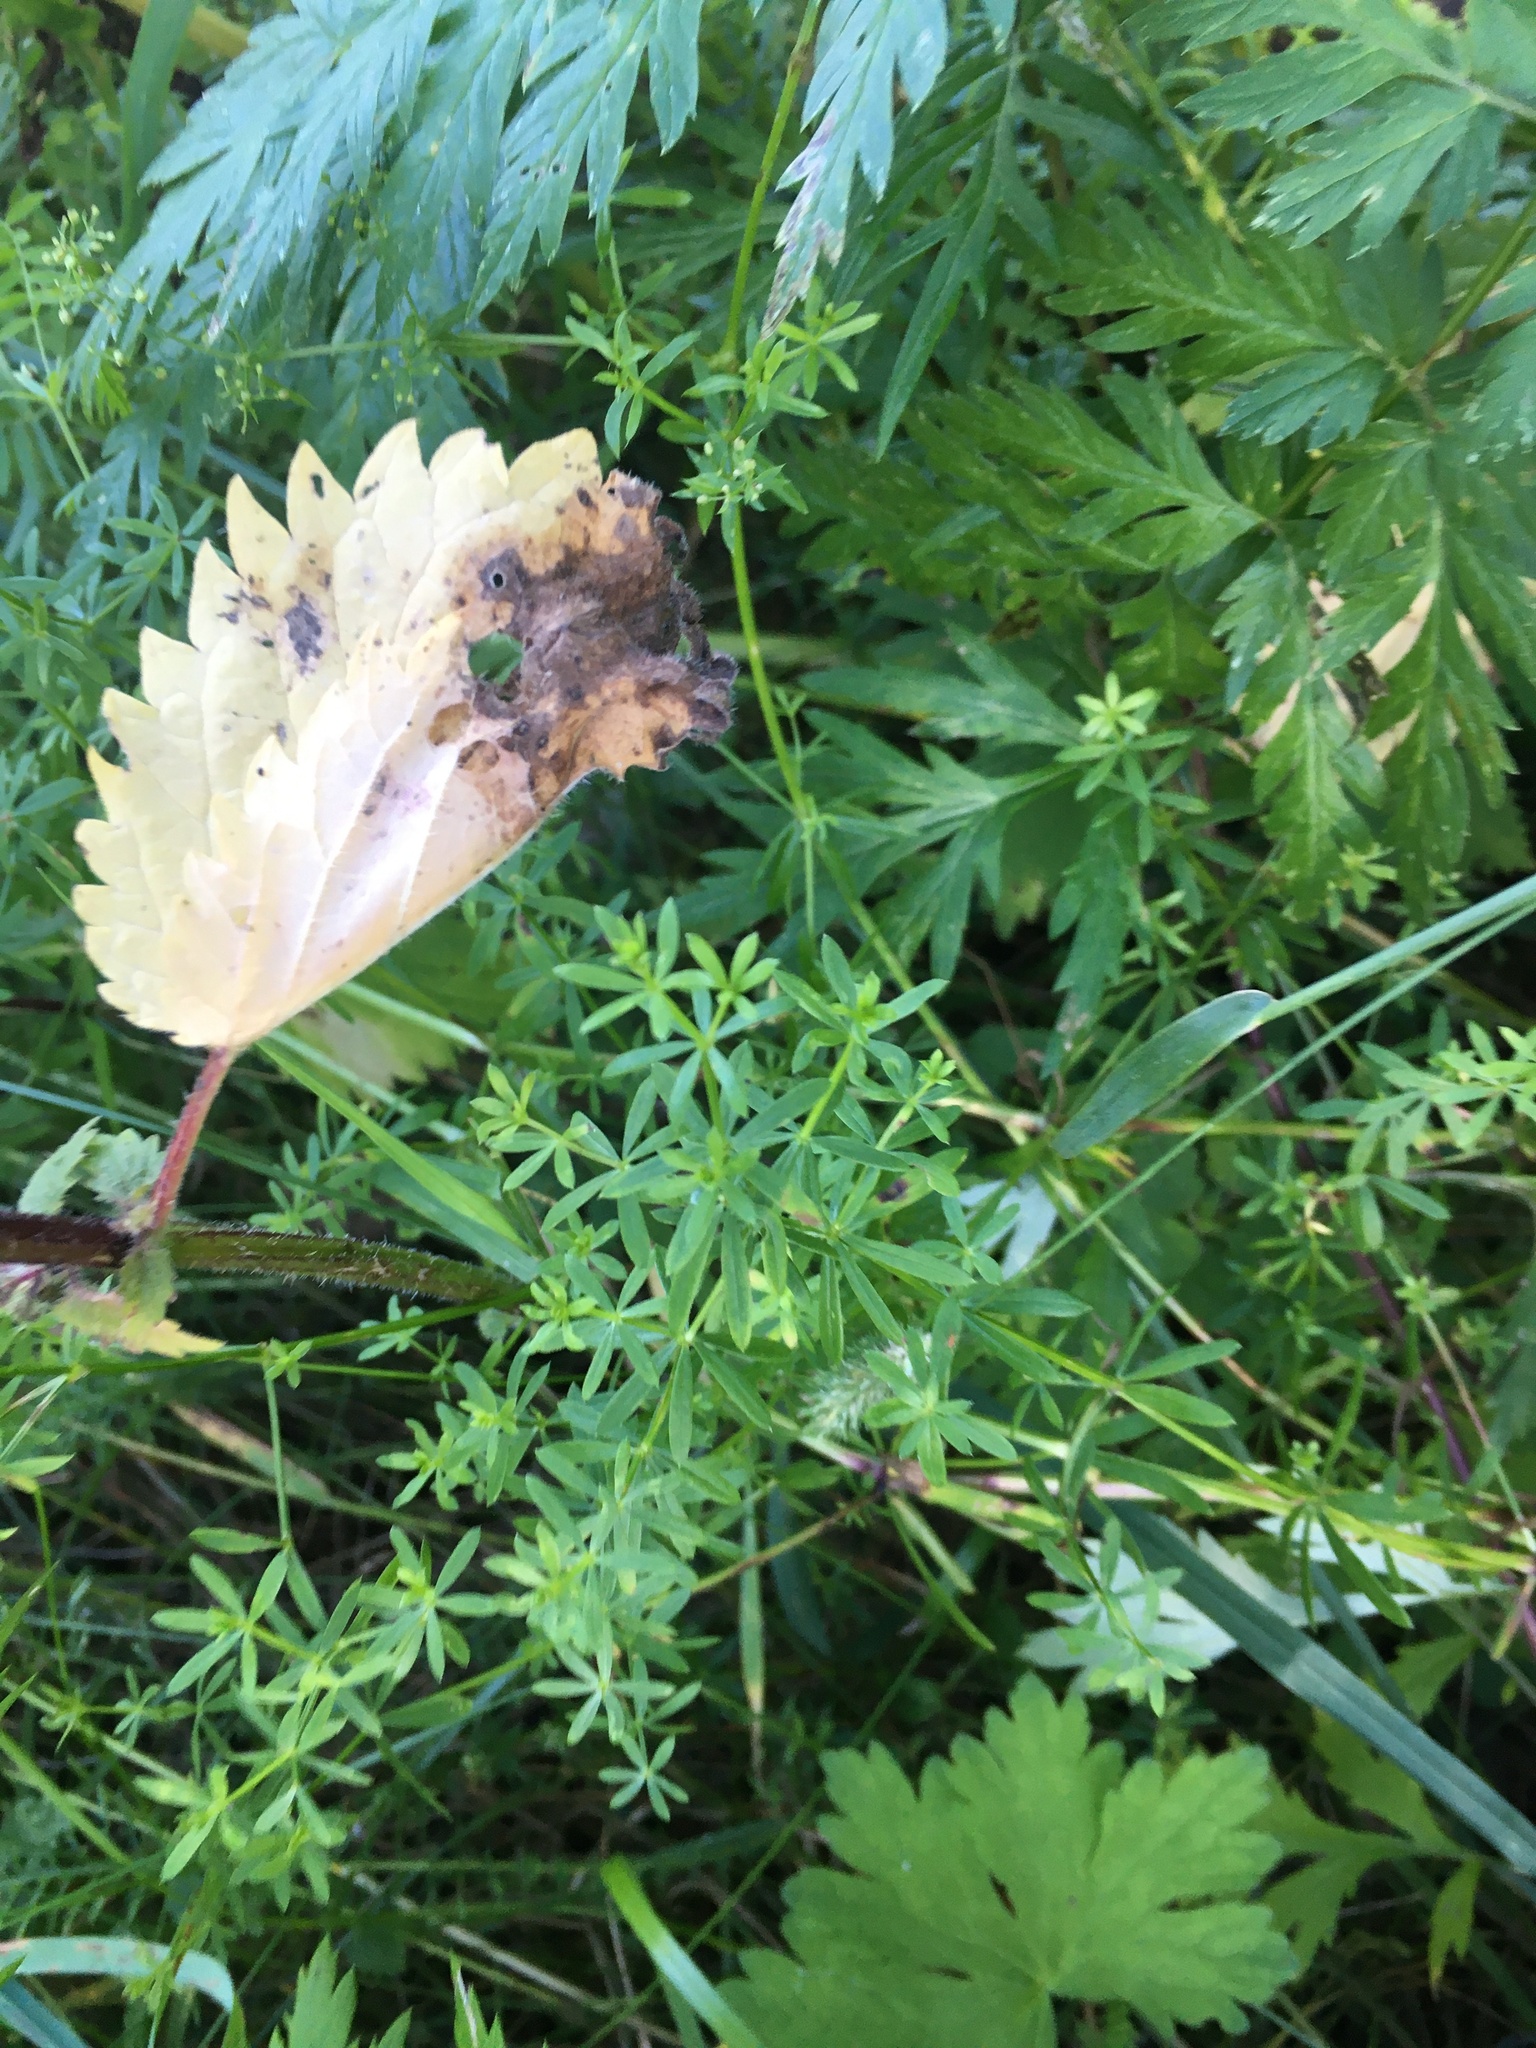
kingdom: Plantae
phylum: Tracheophyta
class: Magnoliopsida
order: Gentianales
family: Rubiaceae
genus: Galium
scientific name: Galium mollugo
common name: Hedge bedstraw
